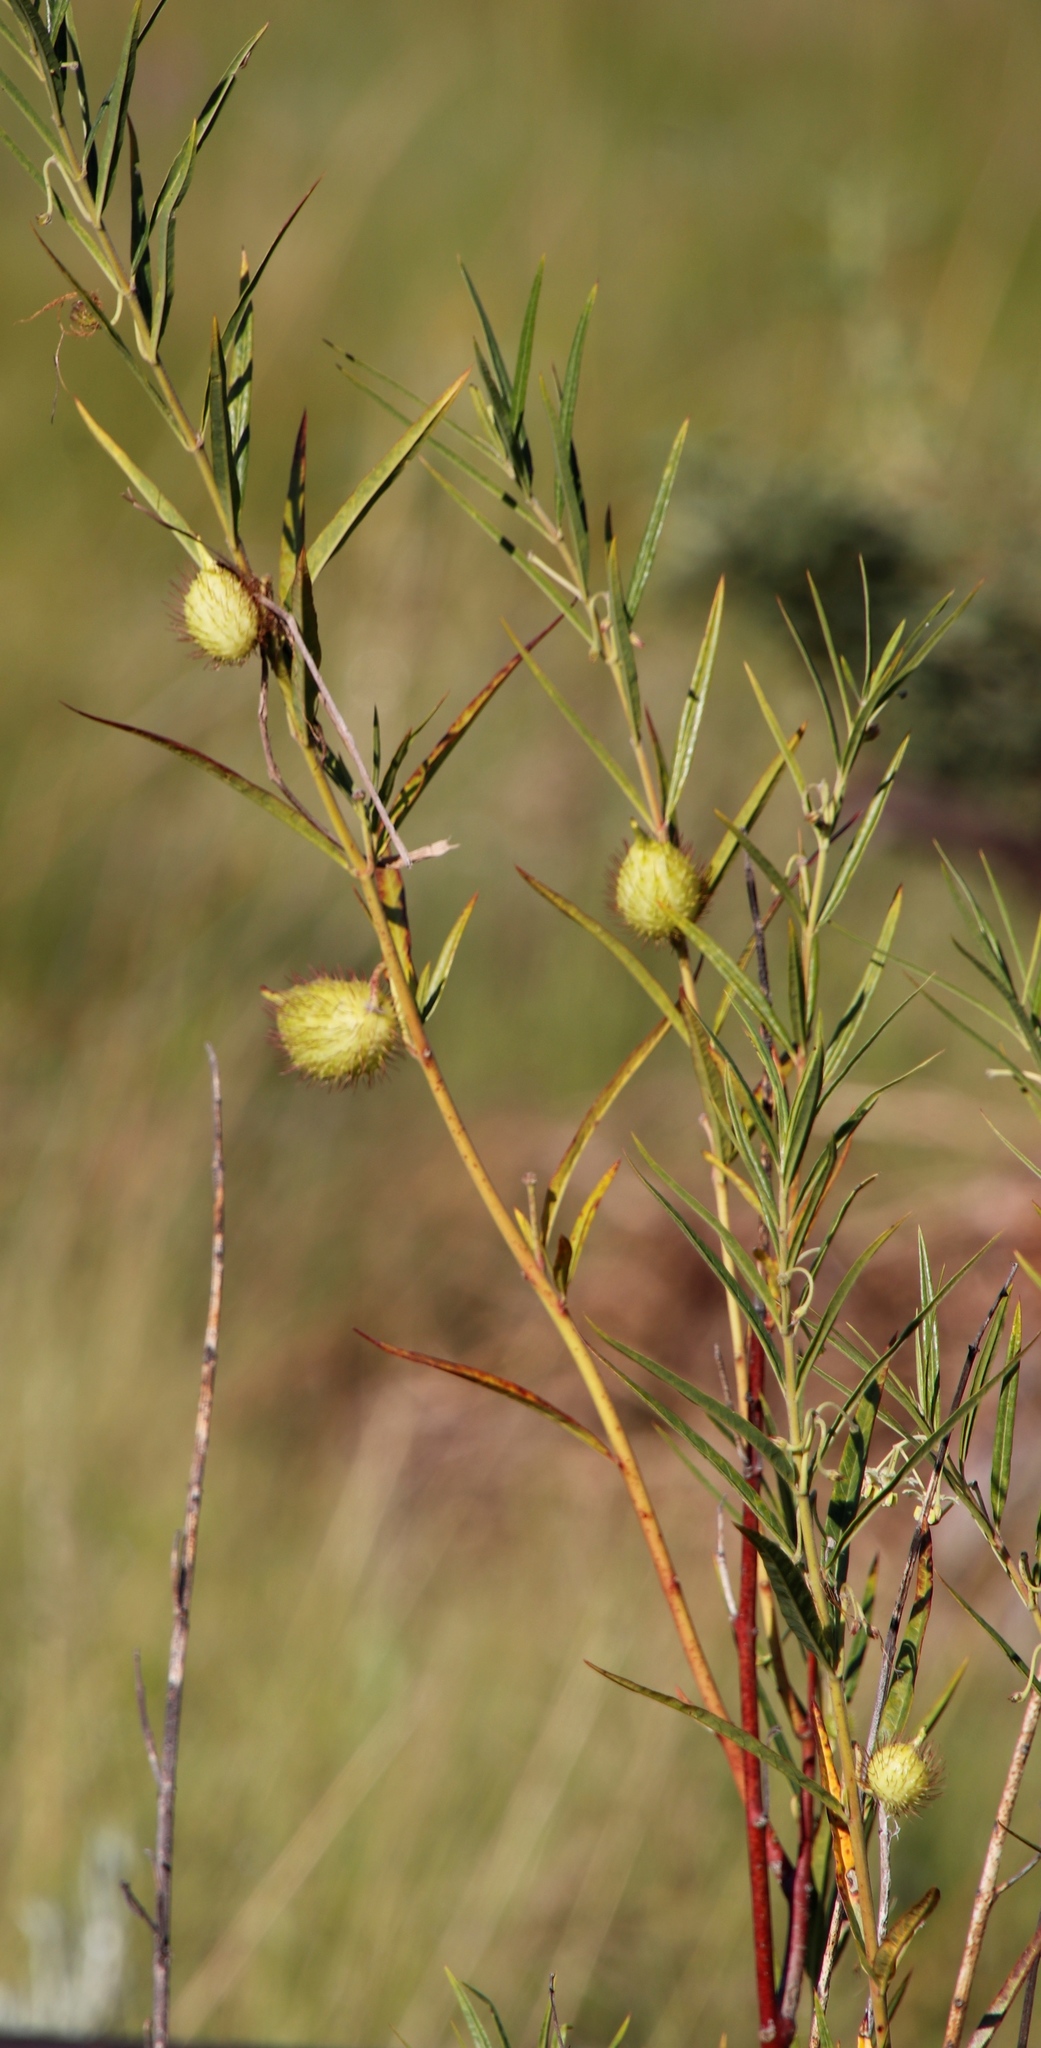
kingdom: Plantae
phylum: Tracheophyta
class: Magnoliopsida
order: Gentianales
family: Apocynaceae
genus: Gomphocarpus
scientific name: Gomphocarpus fruticosus
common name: Milkweed
